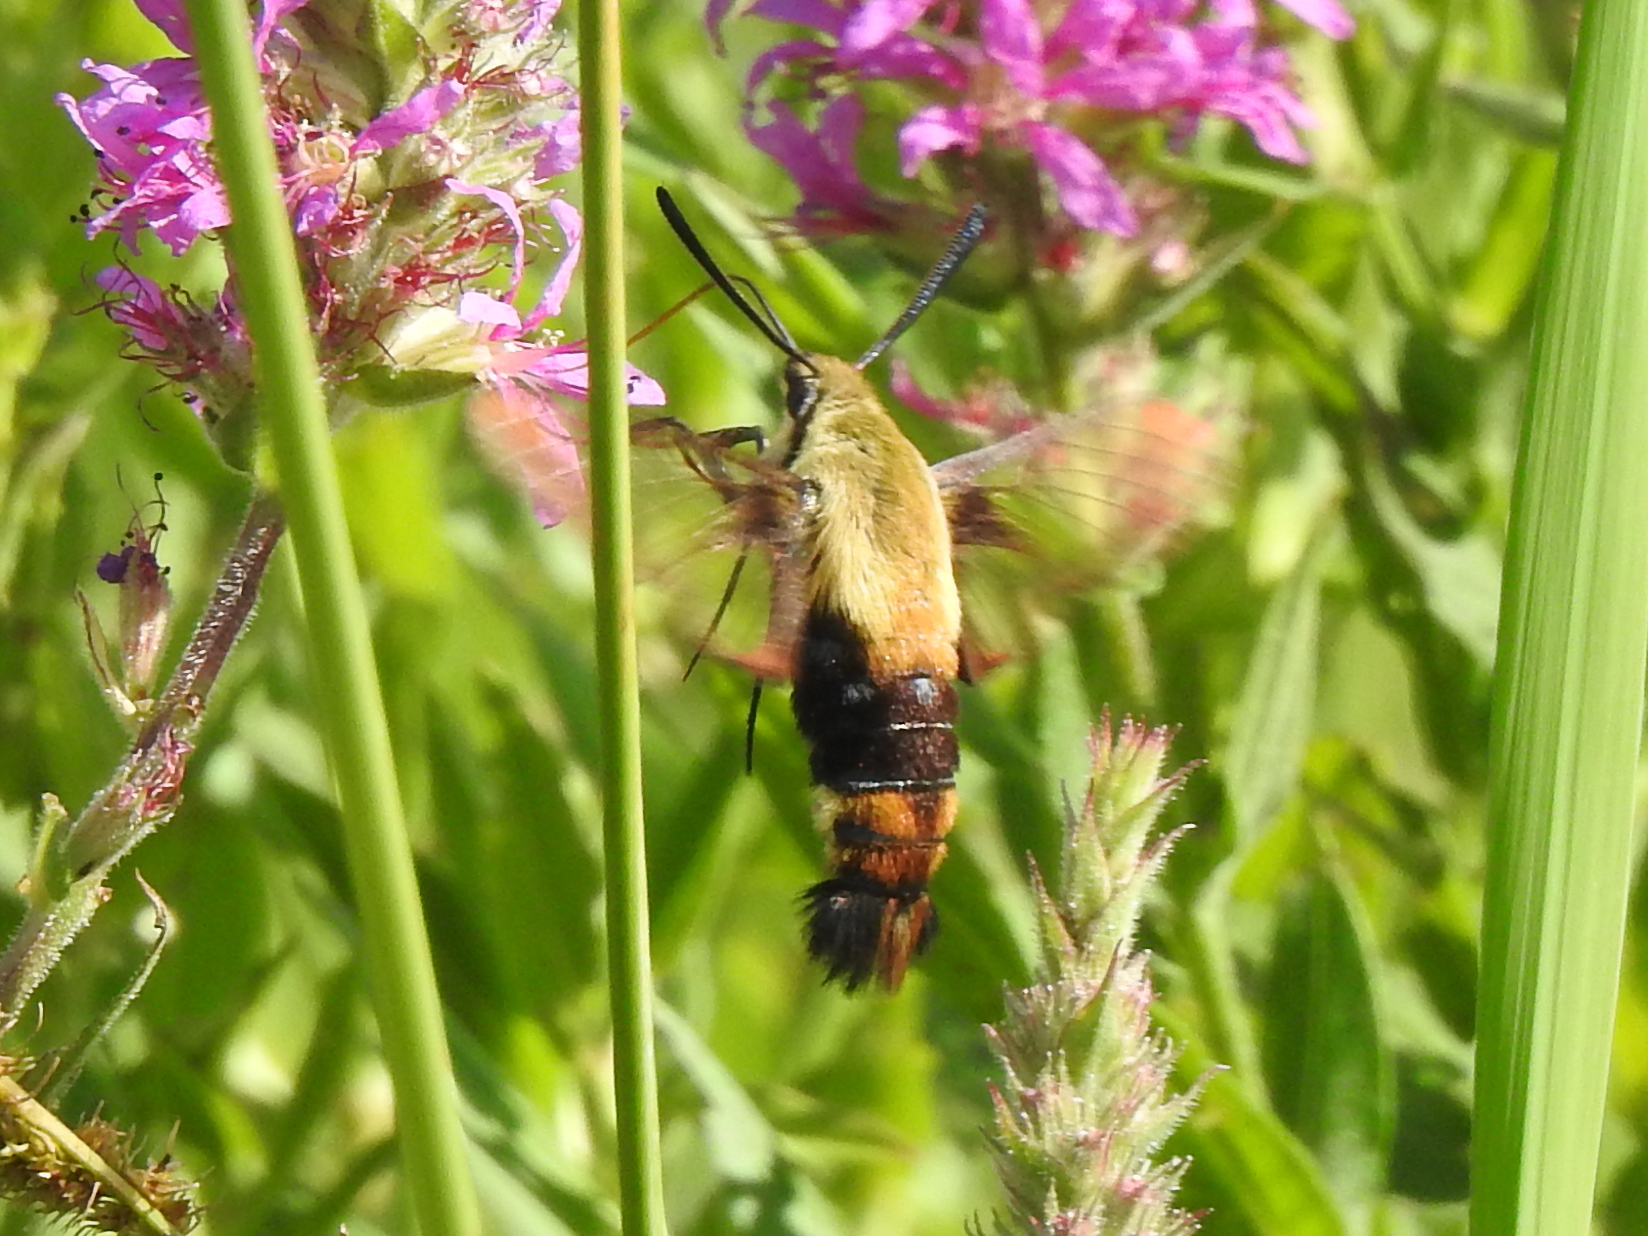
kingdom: Animalia
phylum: Arthropoda
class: Insecta
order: Lepidoptera
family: Sphingidae
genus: Hemaris
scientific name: Hemaris diffinis
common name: Bumblebee moth
